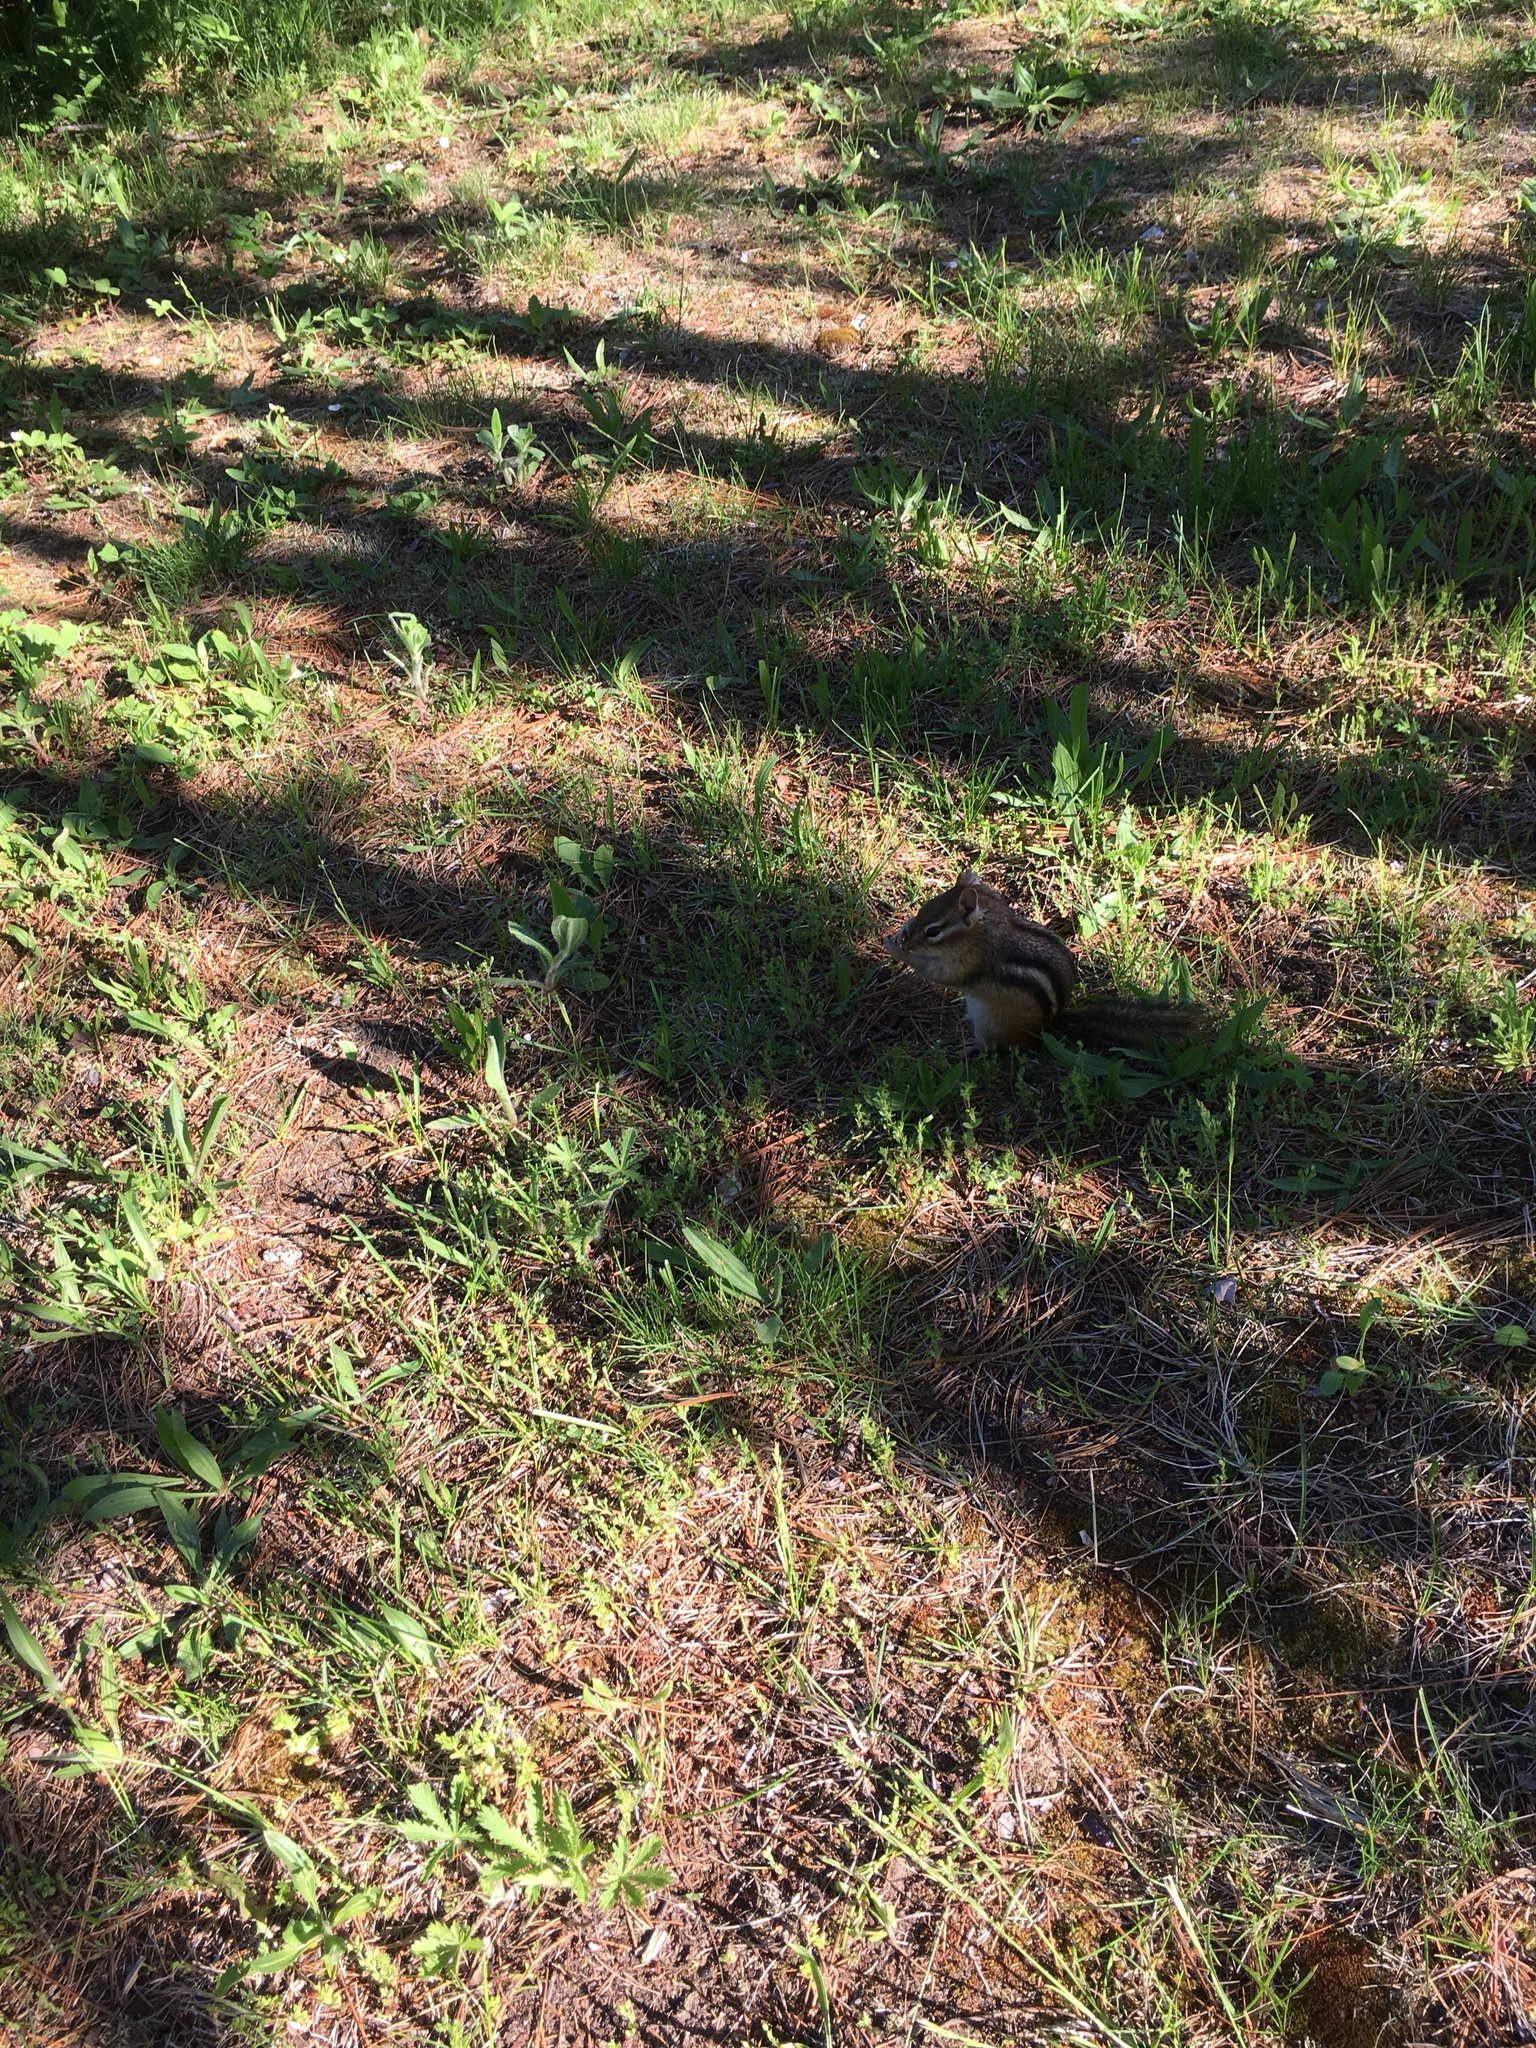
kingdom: Animalia
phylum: Chordata
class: Mammalia
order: Rodentia
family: Sciuridae
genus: Tamias
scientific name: Tamias striatus
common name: Eastern chipmunk
